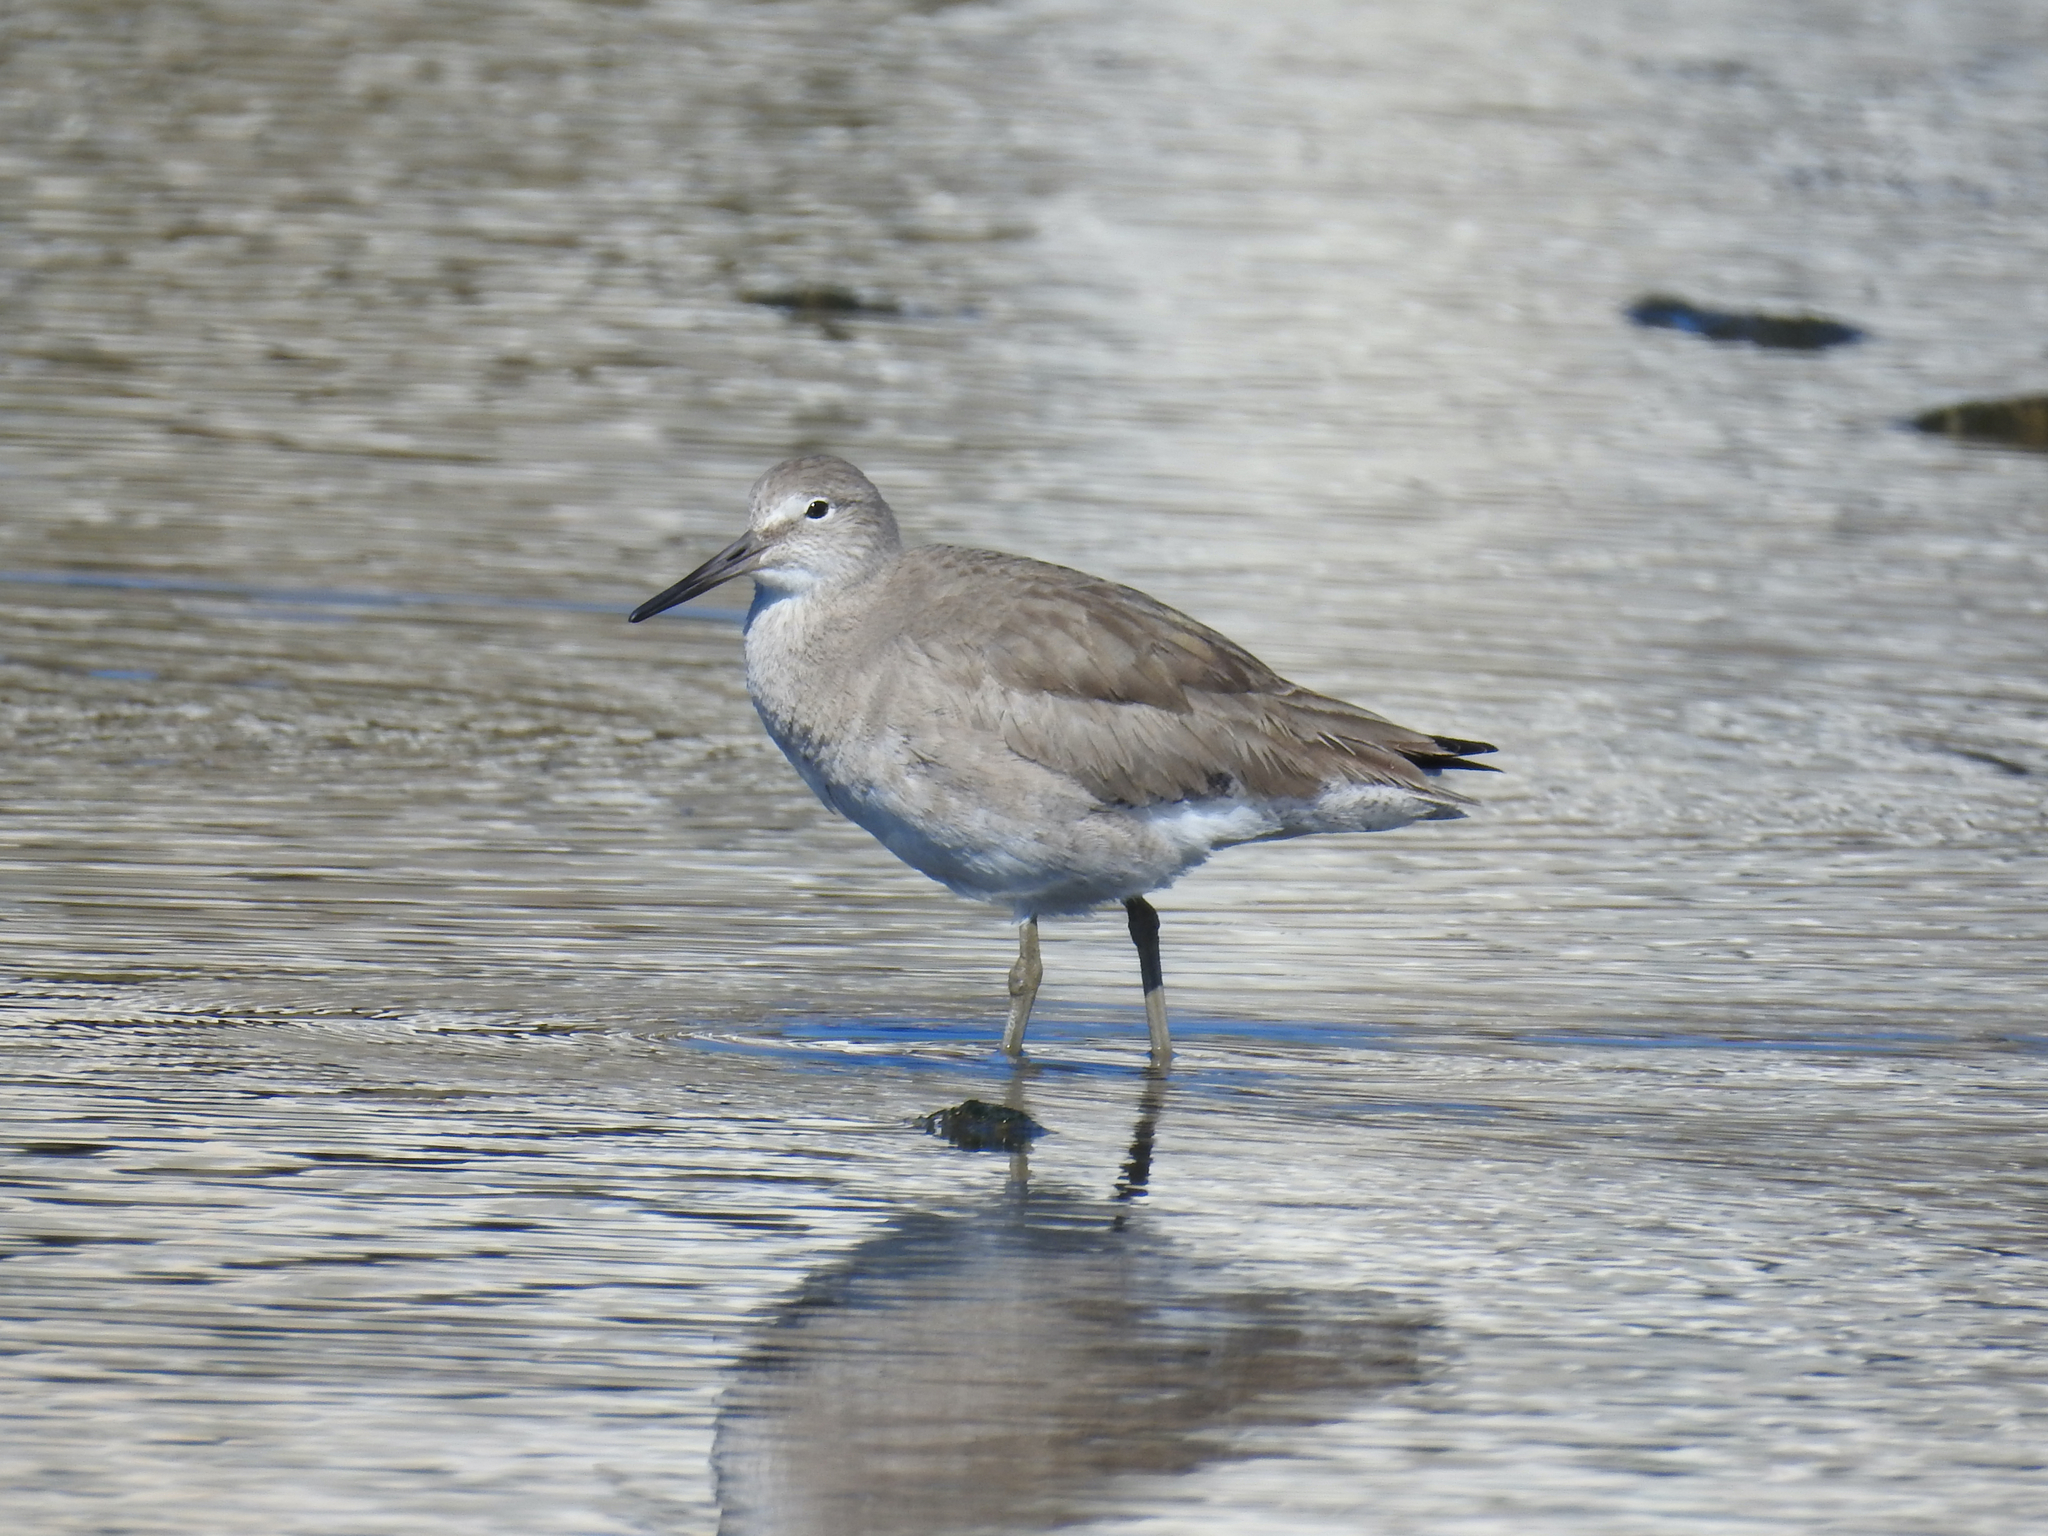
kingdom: Animalia
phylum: Chordata
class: Aves
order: Charadriiformes
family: Scolopacidae
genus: Tringa
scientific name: Tringa semipalmata
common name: Willet
